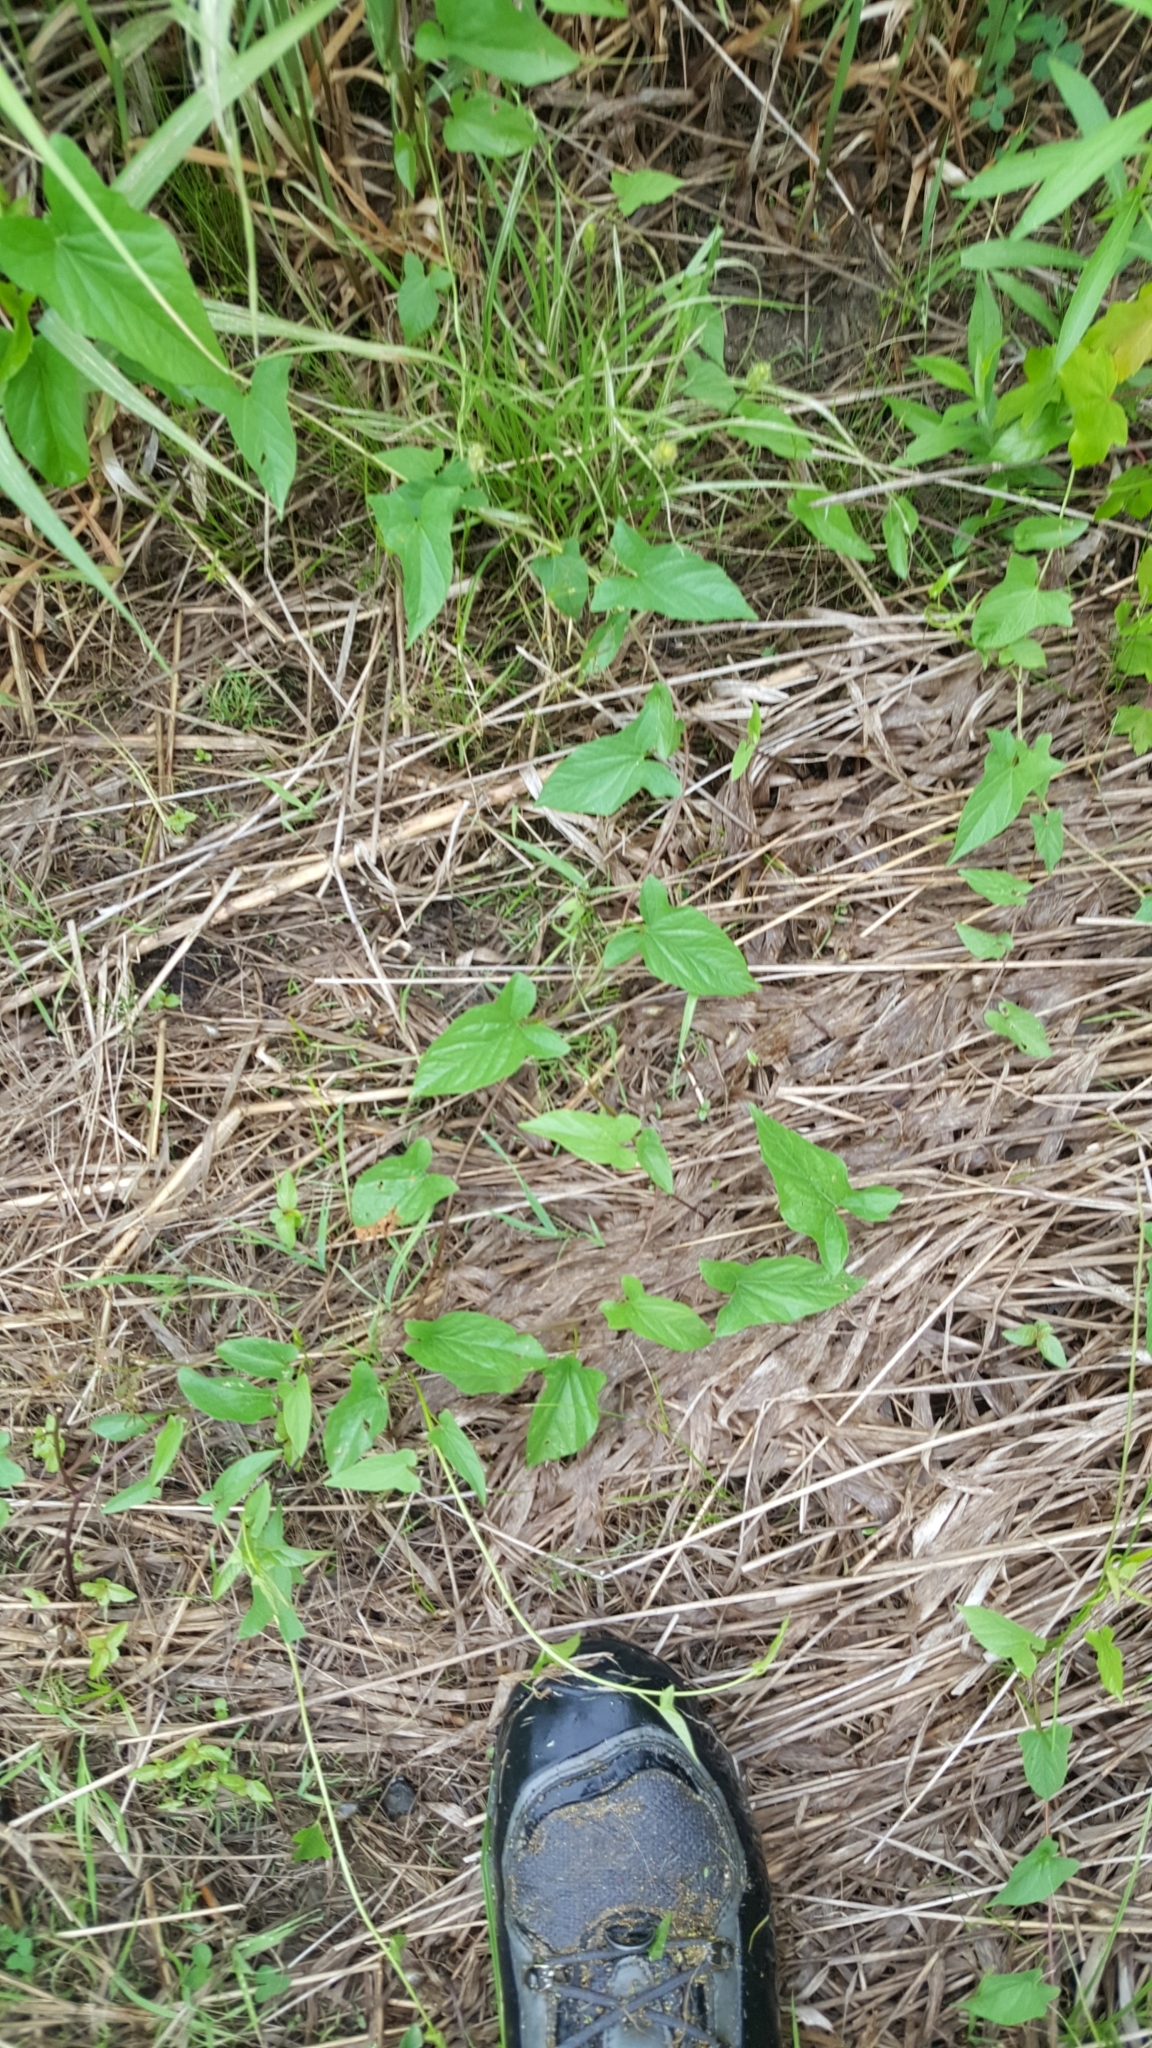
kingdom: Plantae
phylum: Tracheophyta
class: Magnoliopsida
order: Solanales
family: Convolvulaceae
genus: Calystegia
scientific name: Calystegia sepium
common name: Hedge bindweed
